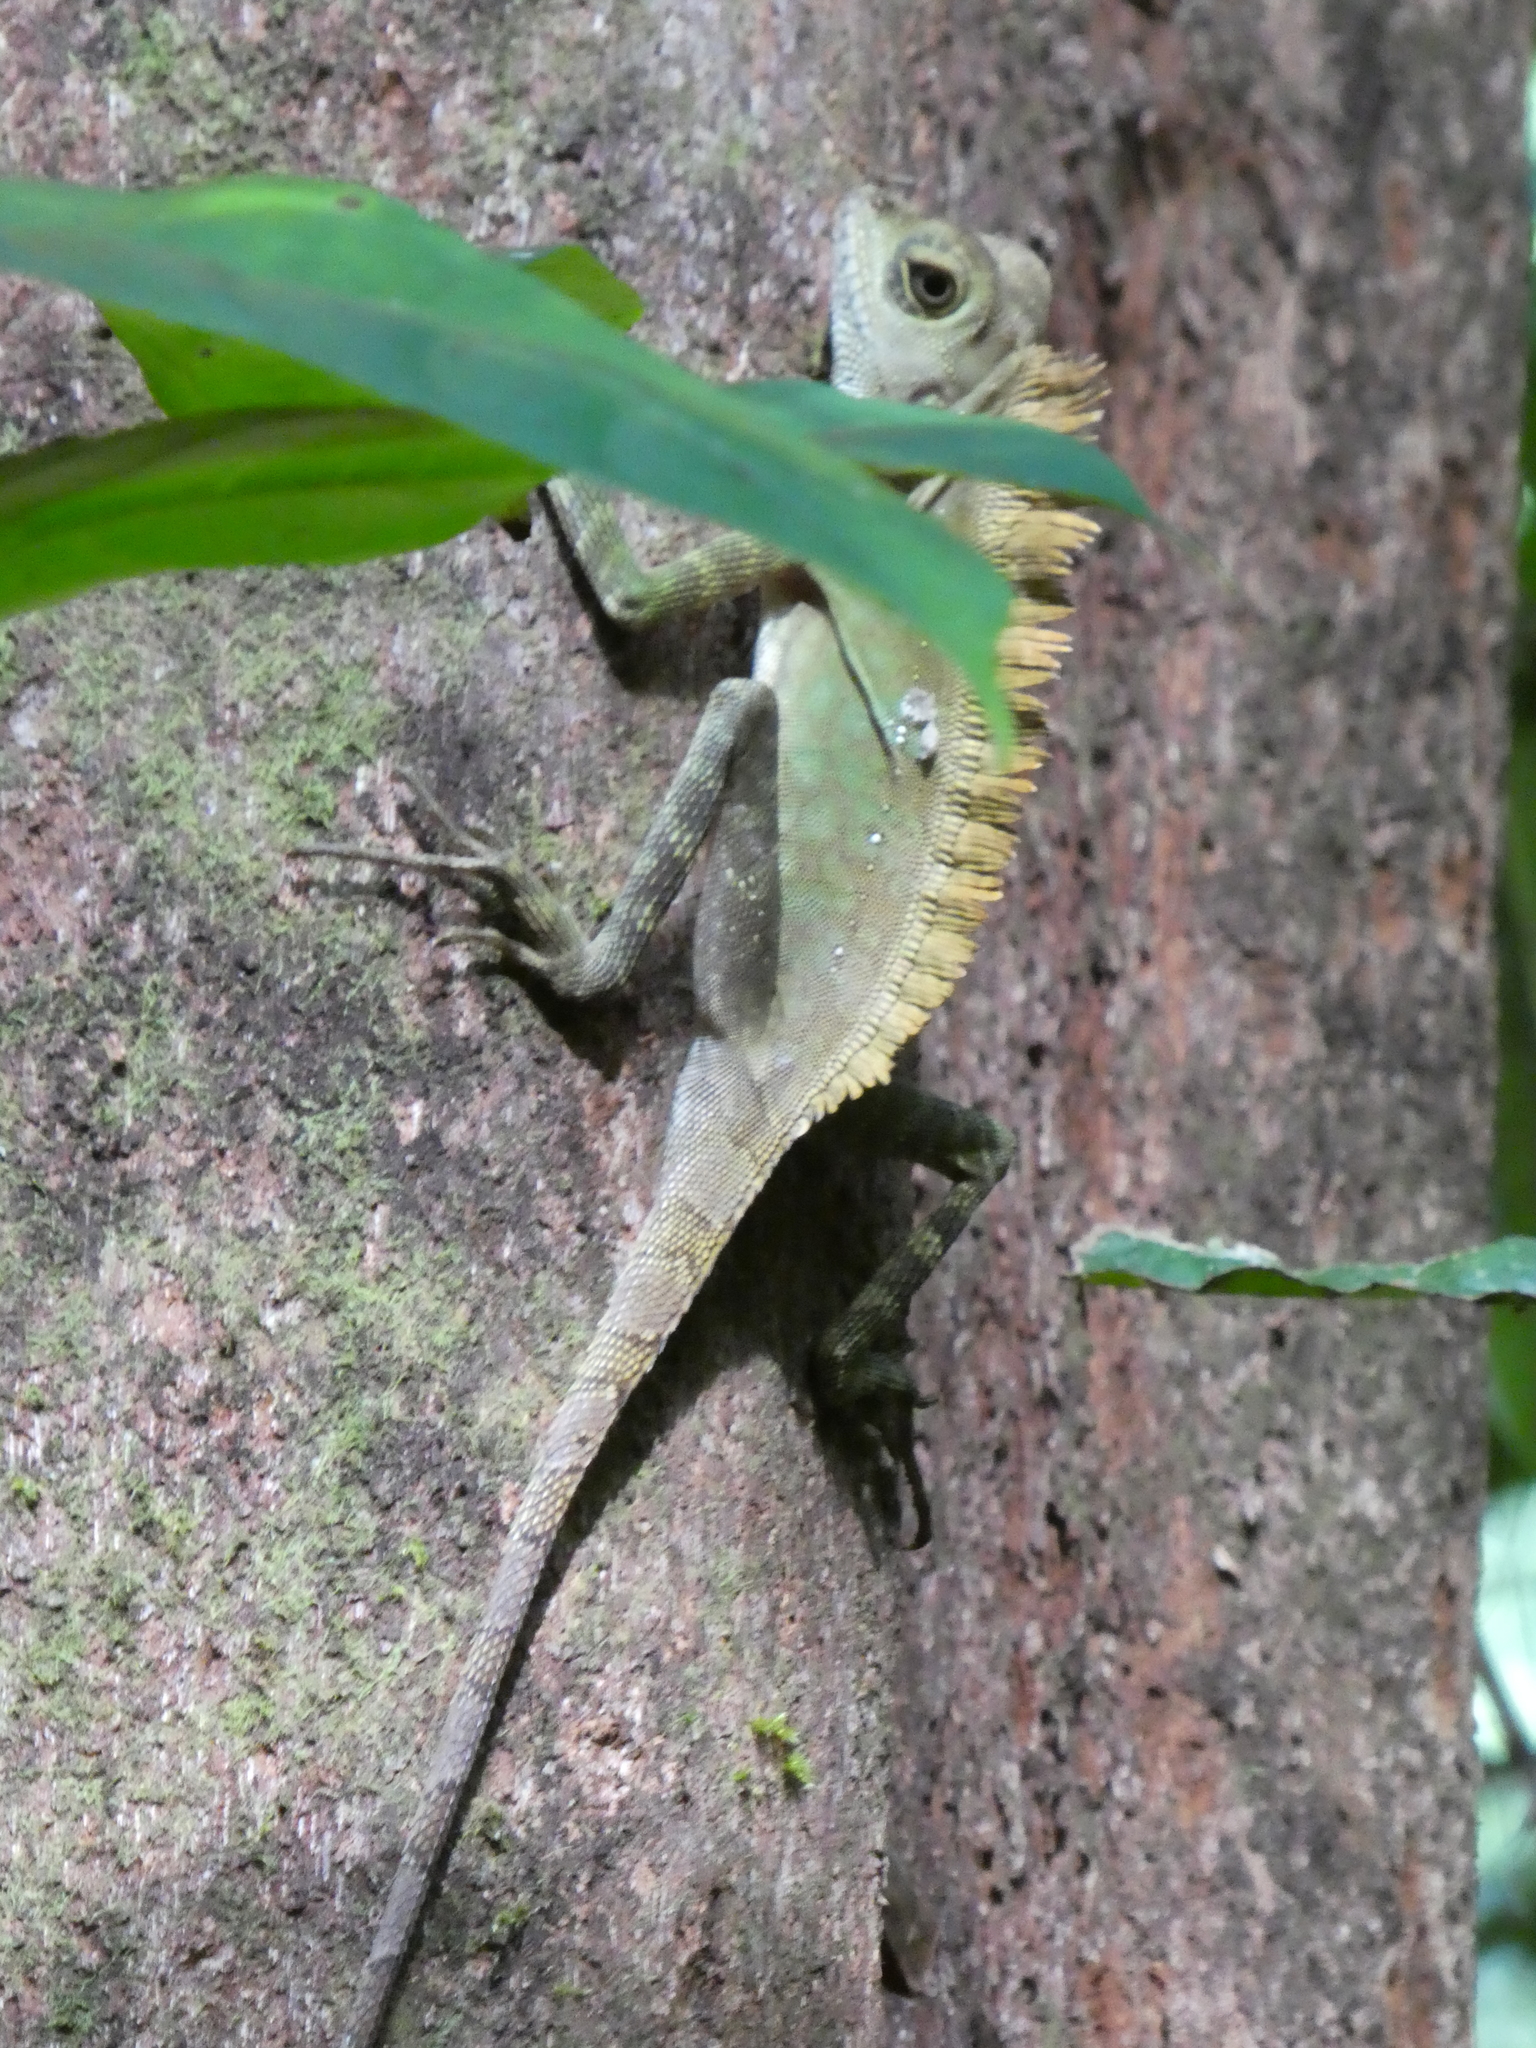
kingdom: Animalia
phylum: Chordata
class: Squamata
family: Agamidae
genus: Gonocephalus
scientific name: Gonocephalus bornensis
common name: Borneo forest dragon
